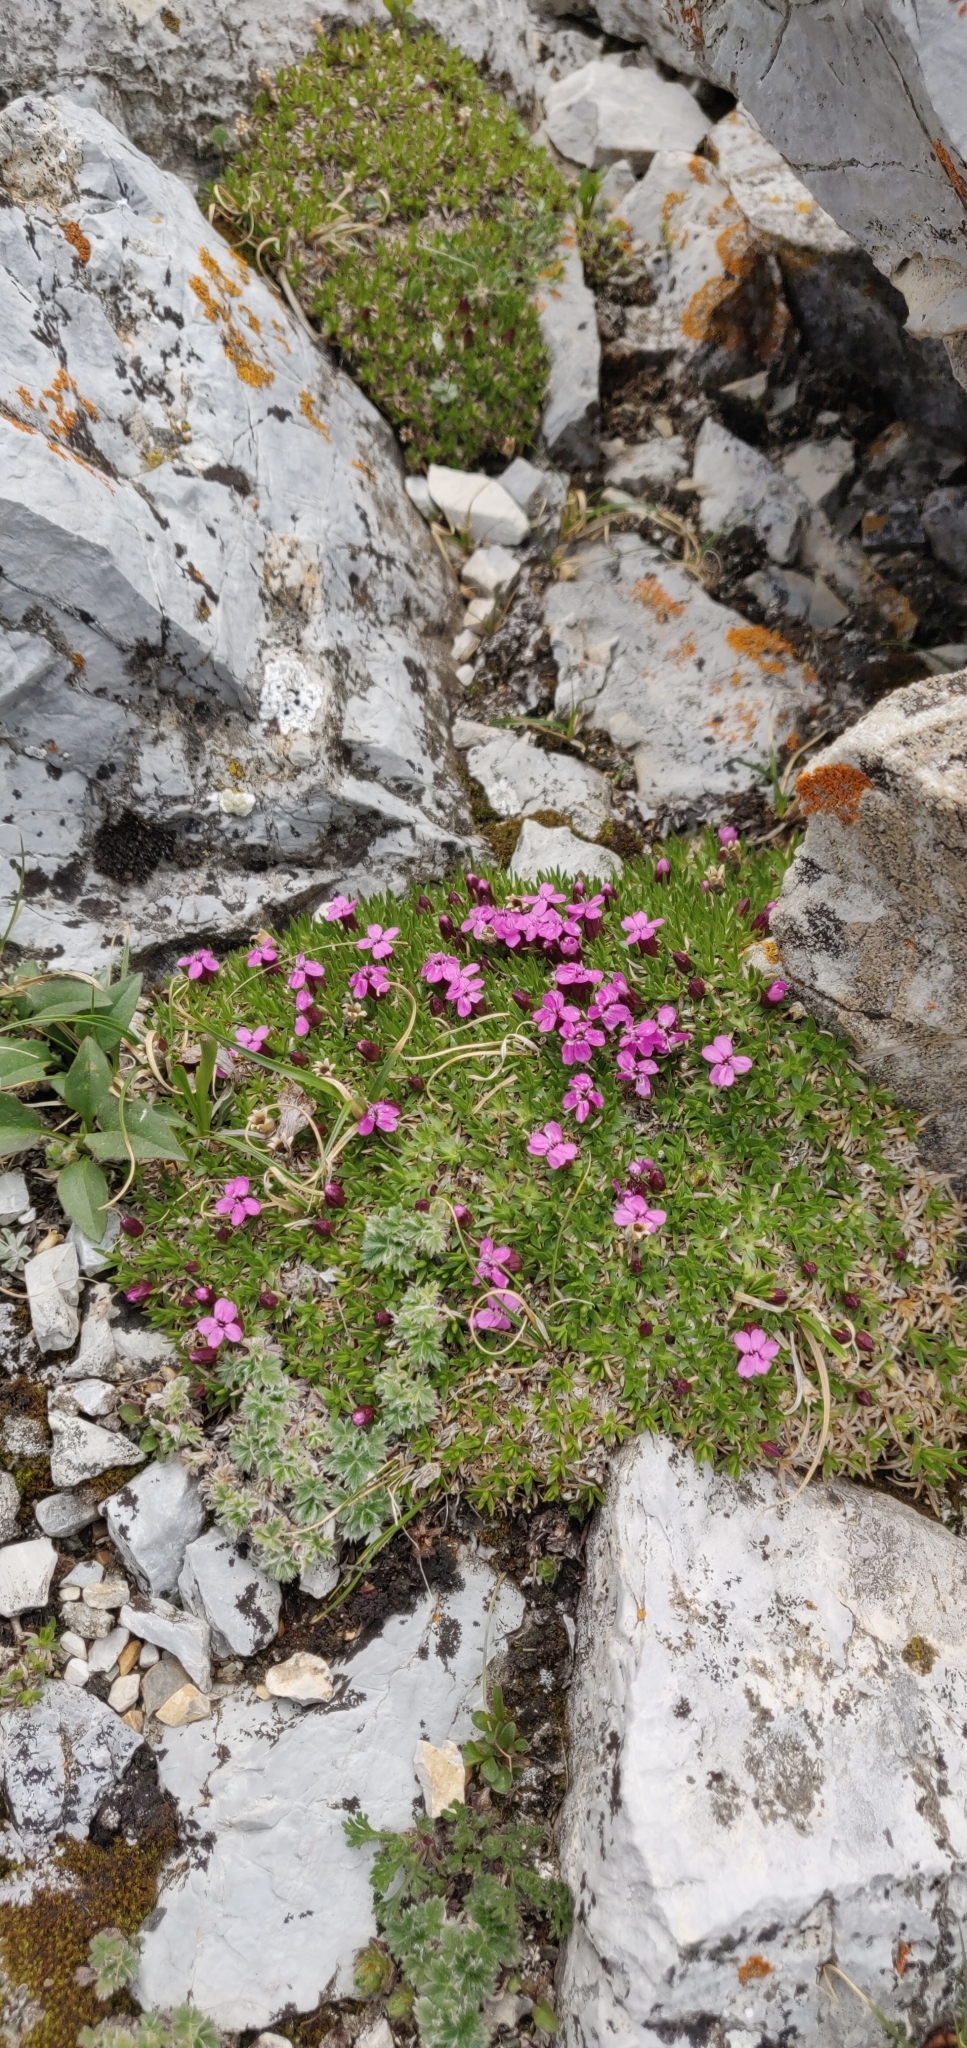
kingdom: Plantae
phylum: Tracheophyta
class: Magnoliopsida
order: Caryophyllales
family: Caryophyllaceae
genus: Silene
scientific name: Silene acaulis
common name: Moss campion
